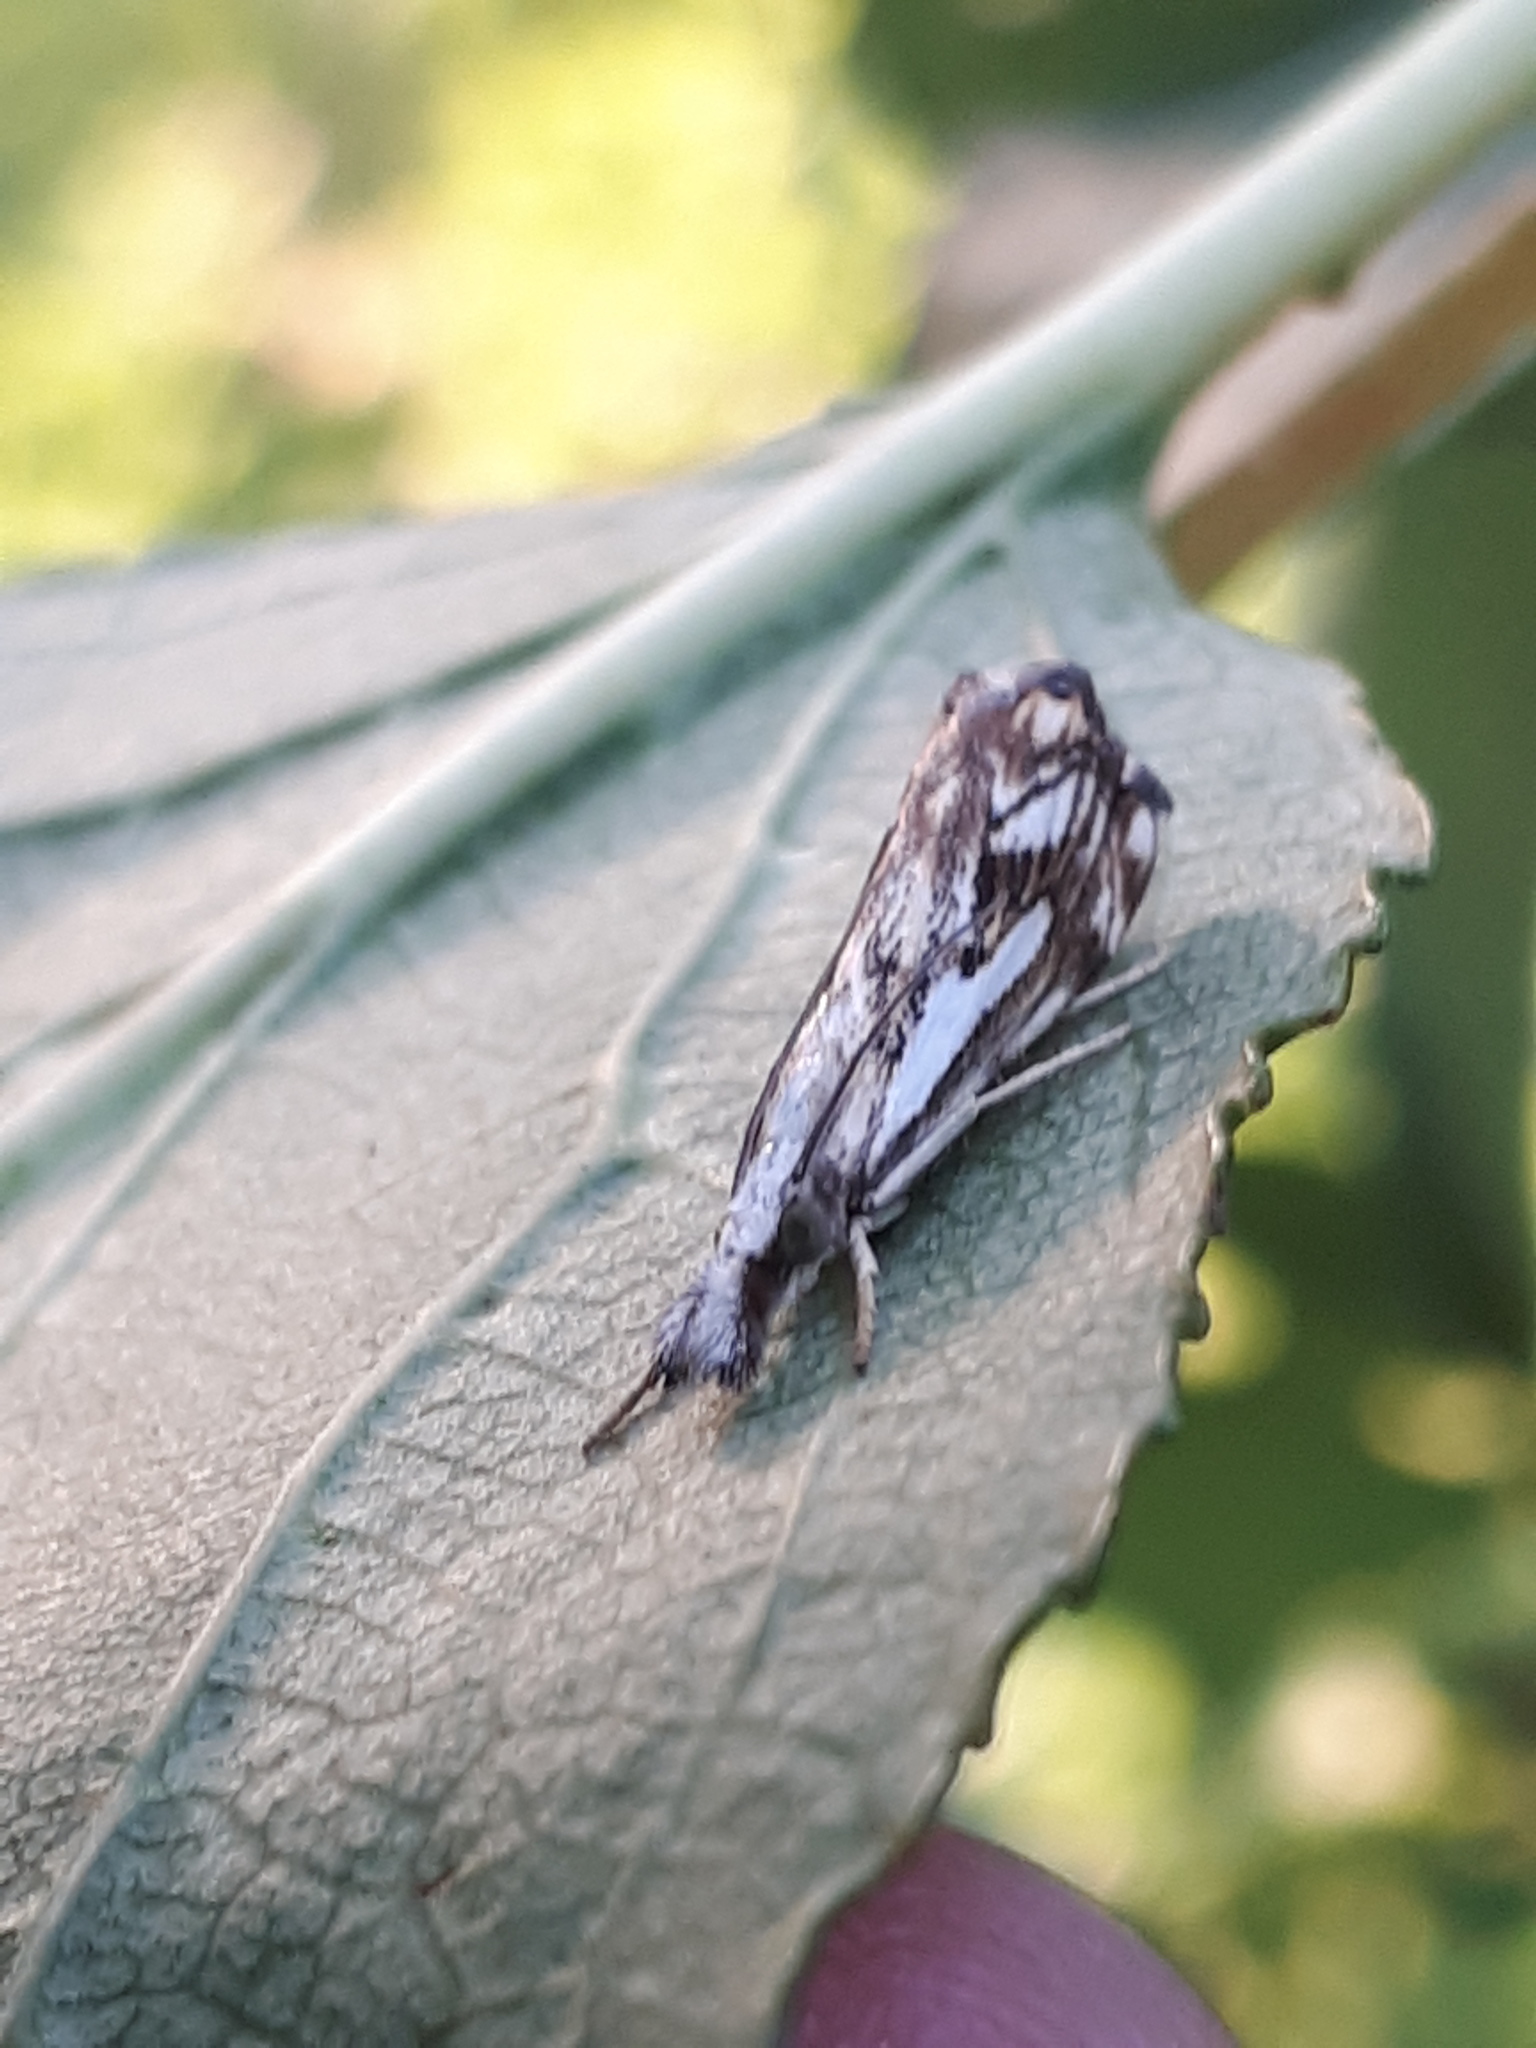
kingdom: Animalia
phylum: Arthropoda
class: Insecta
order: Lepidoptera
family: Crambidae
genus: Catoptria
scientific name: Catoptria falsella
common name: Chequered grass-veneer
